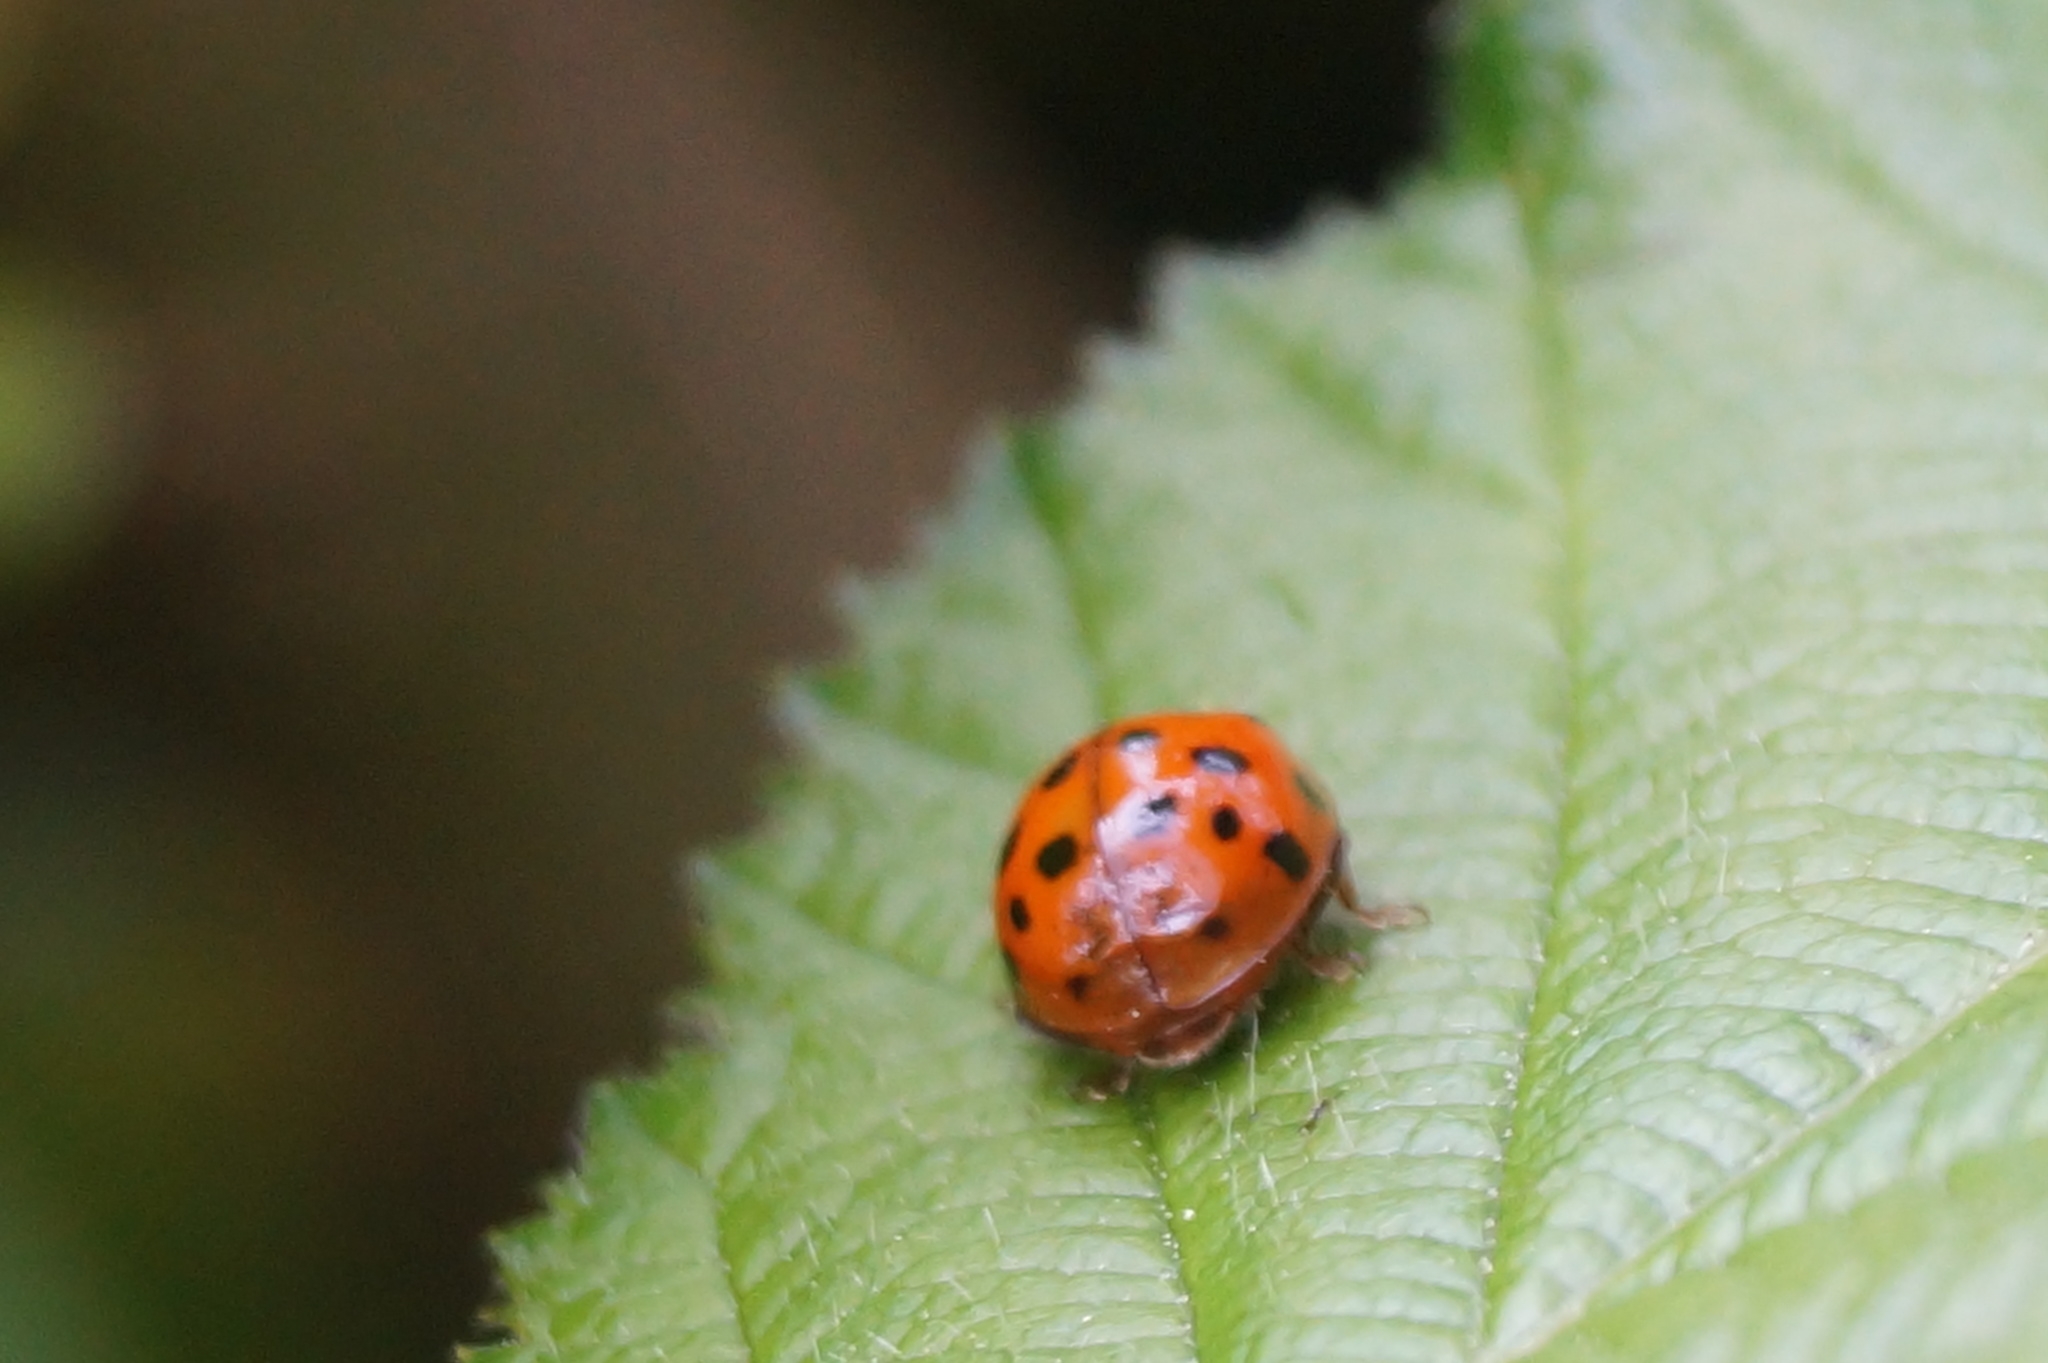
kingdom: Animalia
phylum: Arthropoda
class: Insecta
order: Coleoptera
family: Coccinellidae
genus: Harmonia
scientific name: Harmonia axyridis
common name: Harlequin ladybird
